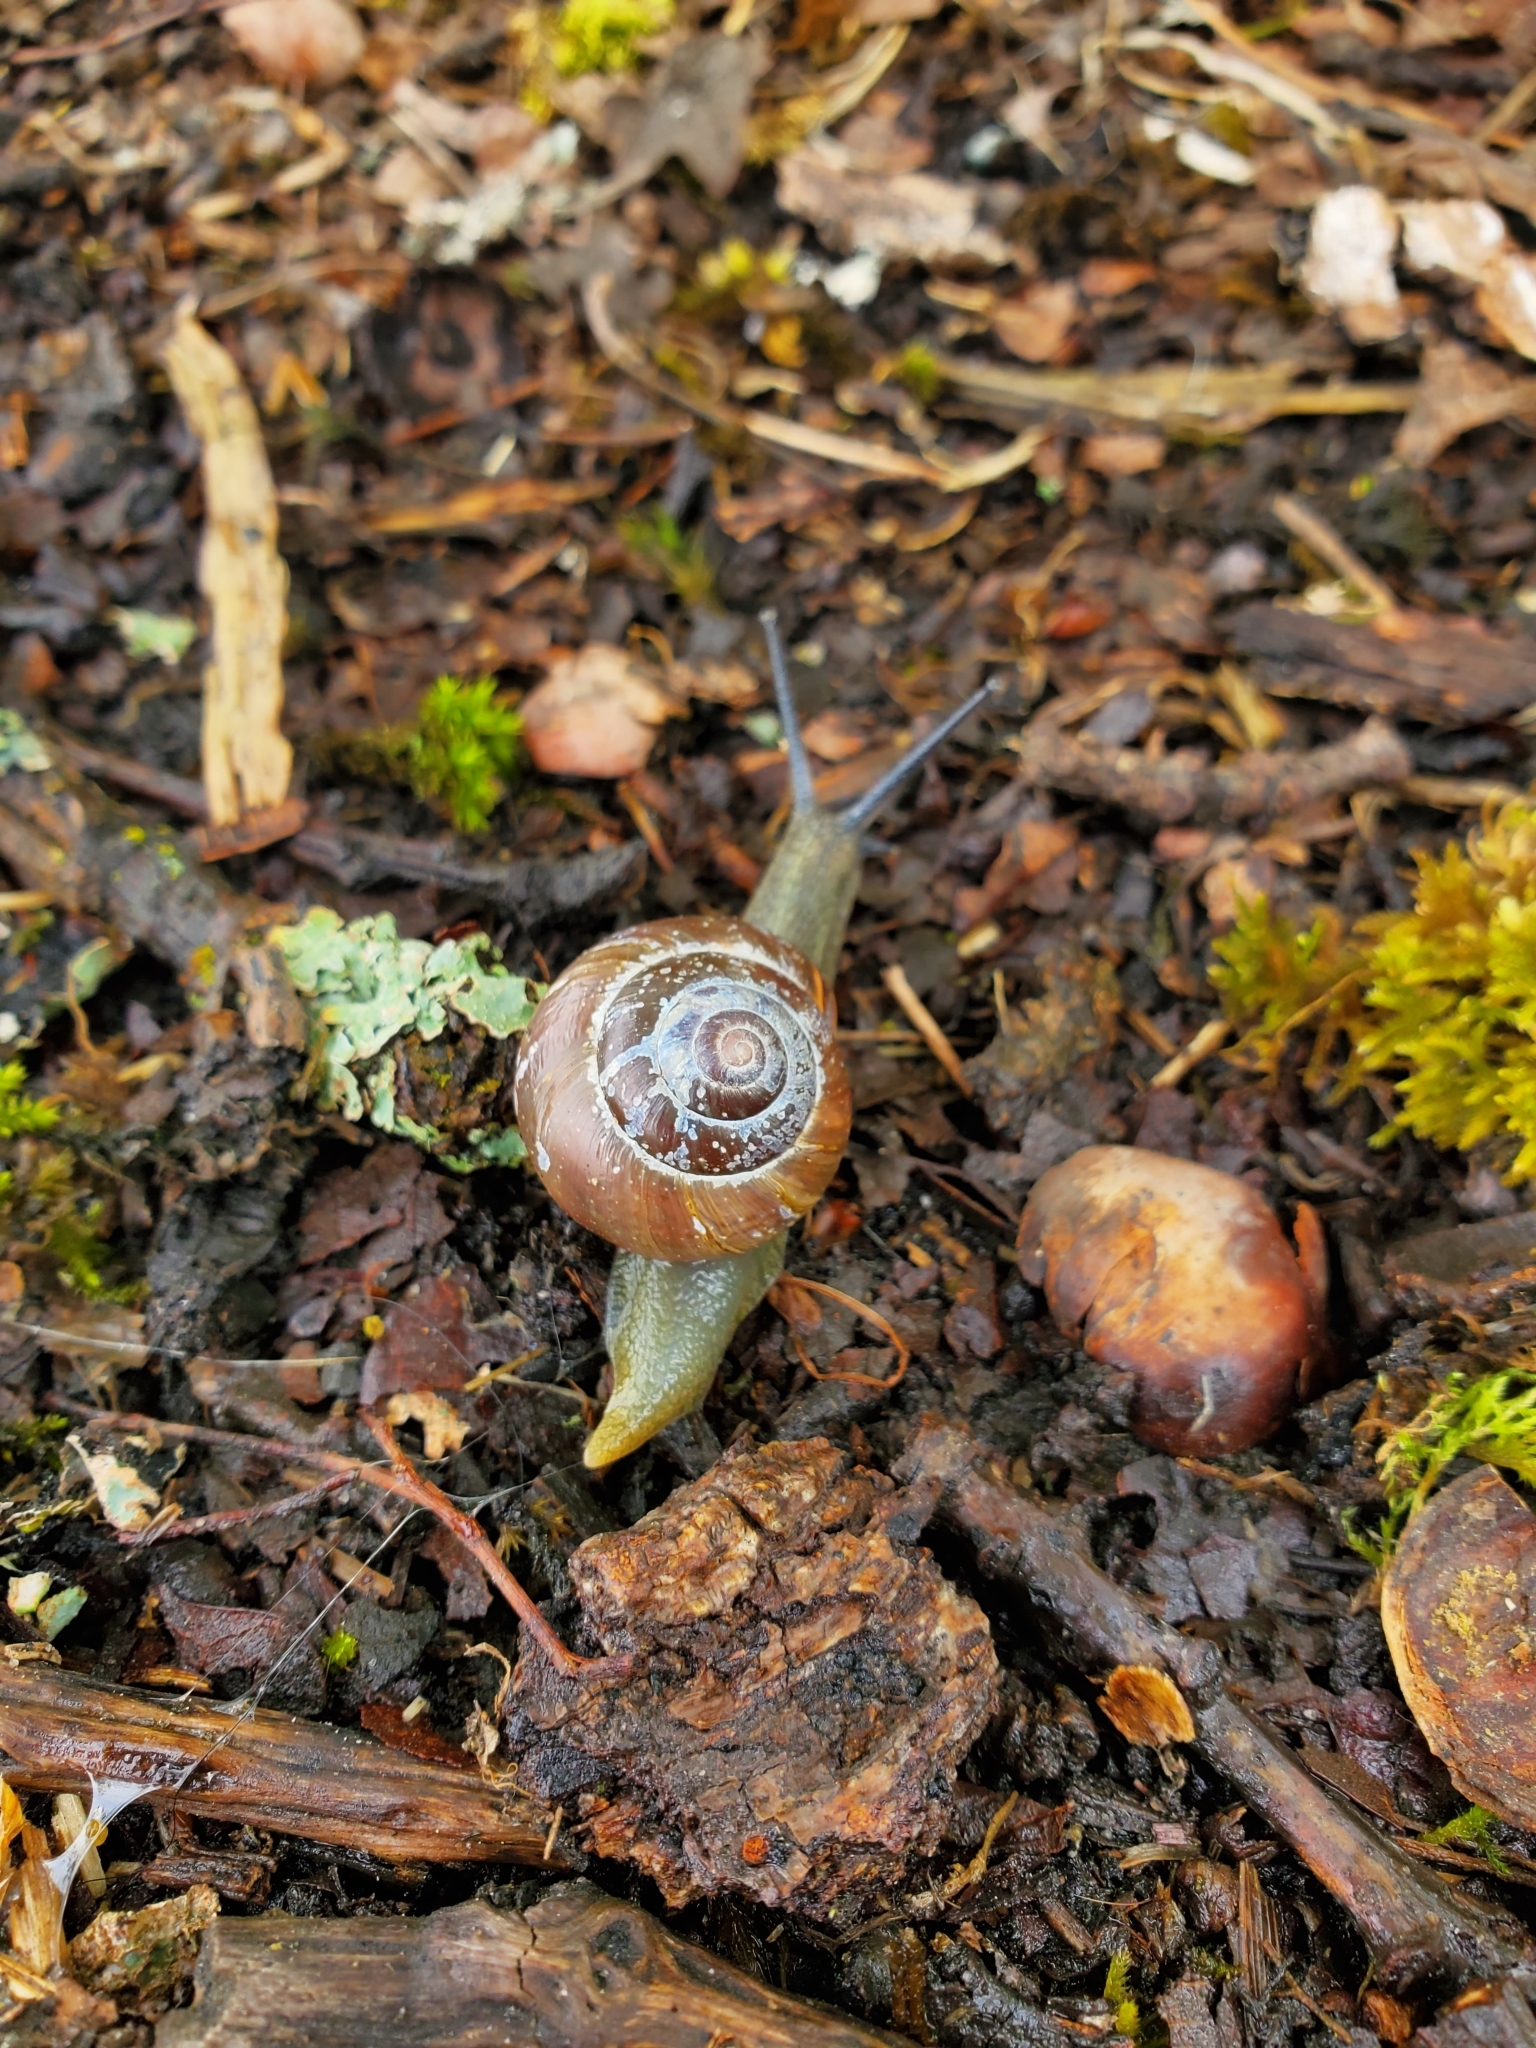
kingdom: Animalia
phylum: Mollusca
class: Gastropoda
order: Stylommatophora
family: Helicidae
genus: Cepaea
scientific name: Cepaea nemoralis
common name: Grovesnail
